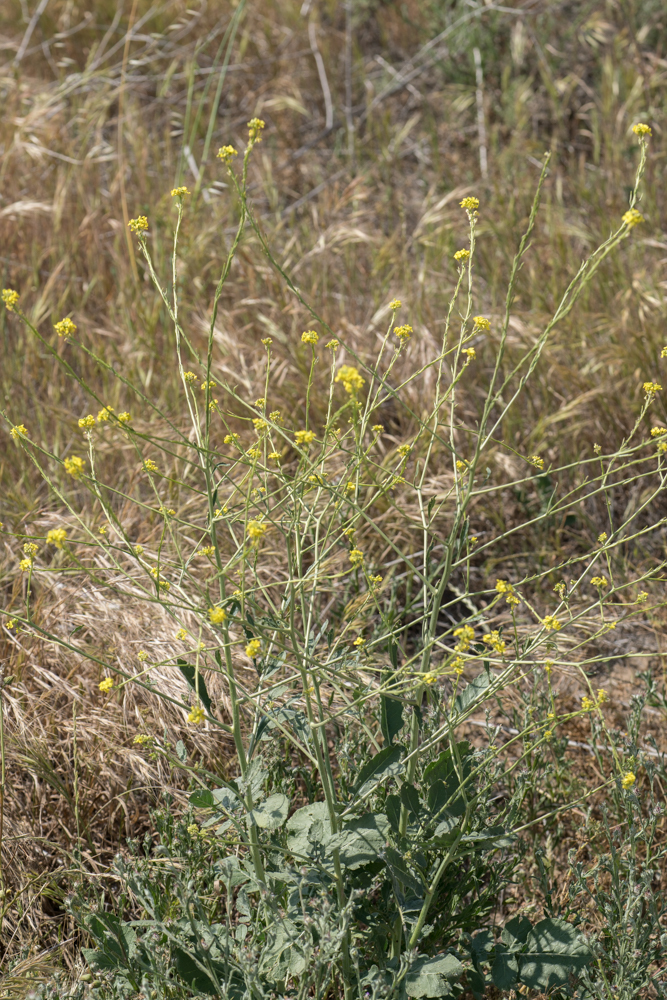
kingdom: Plantae
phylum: Tracheophyta
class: Magnoliopsida
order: Brassicales
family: Brassicaceae
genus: Hirschfeldia
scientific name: Hirschfeldia incana
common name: Hoary mustard
